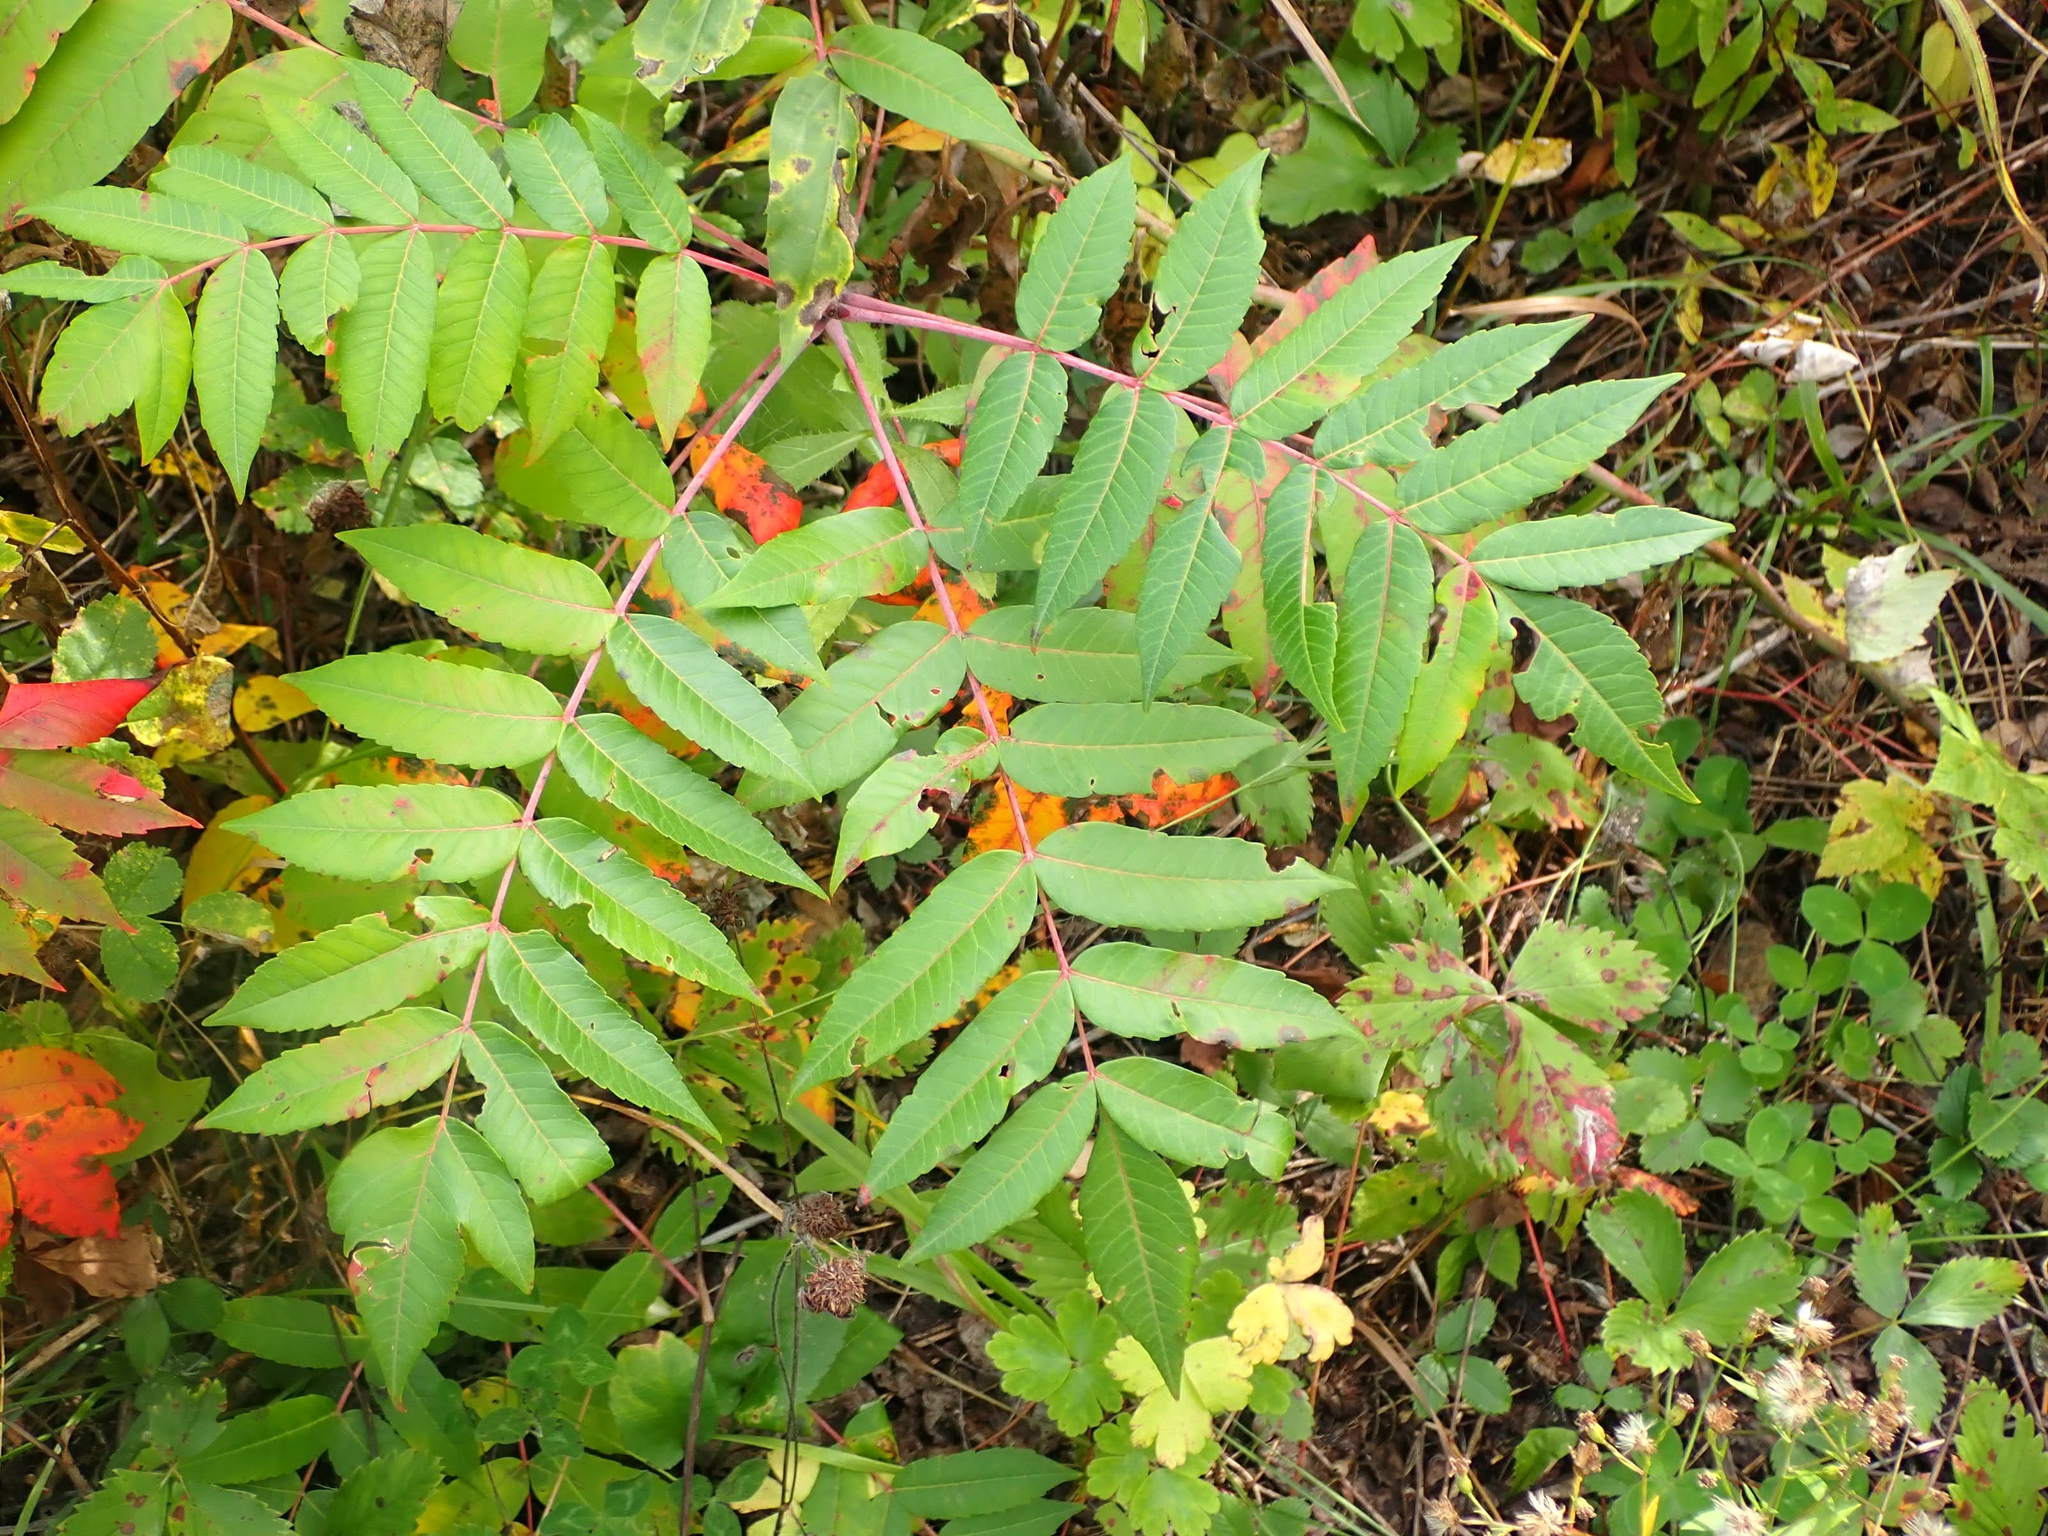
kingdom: Plantae
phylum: Tracheophyta
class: Magnoliopsida
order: Sapindales
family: Anacardiaceae
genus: Rhus
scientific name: Rhus glabra
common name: Scarlet sumac
